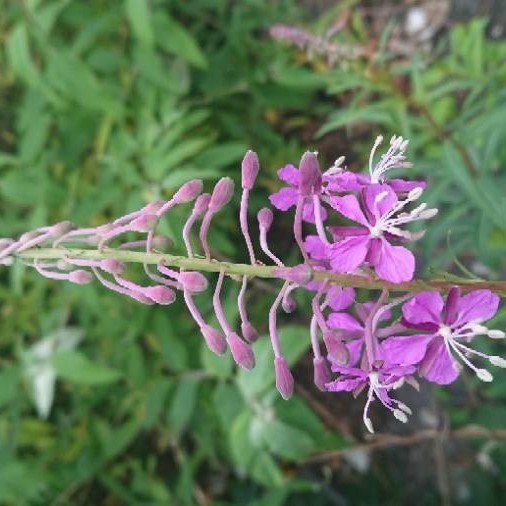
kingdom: Plantae
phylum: Tracheophyta
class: Magnoliopsida
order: Myrtales
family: Onagraceae
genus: Chamaenerion
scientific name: Chamaenerion angustifolium
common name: Fireweed
